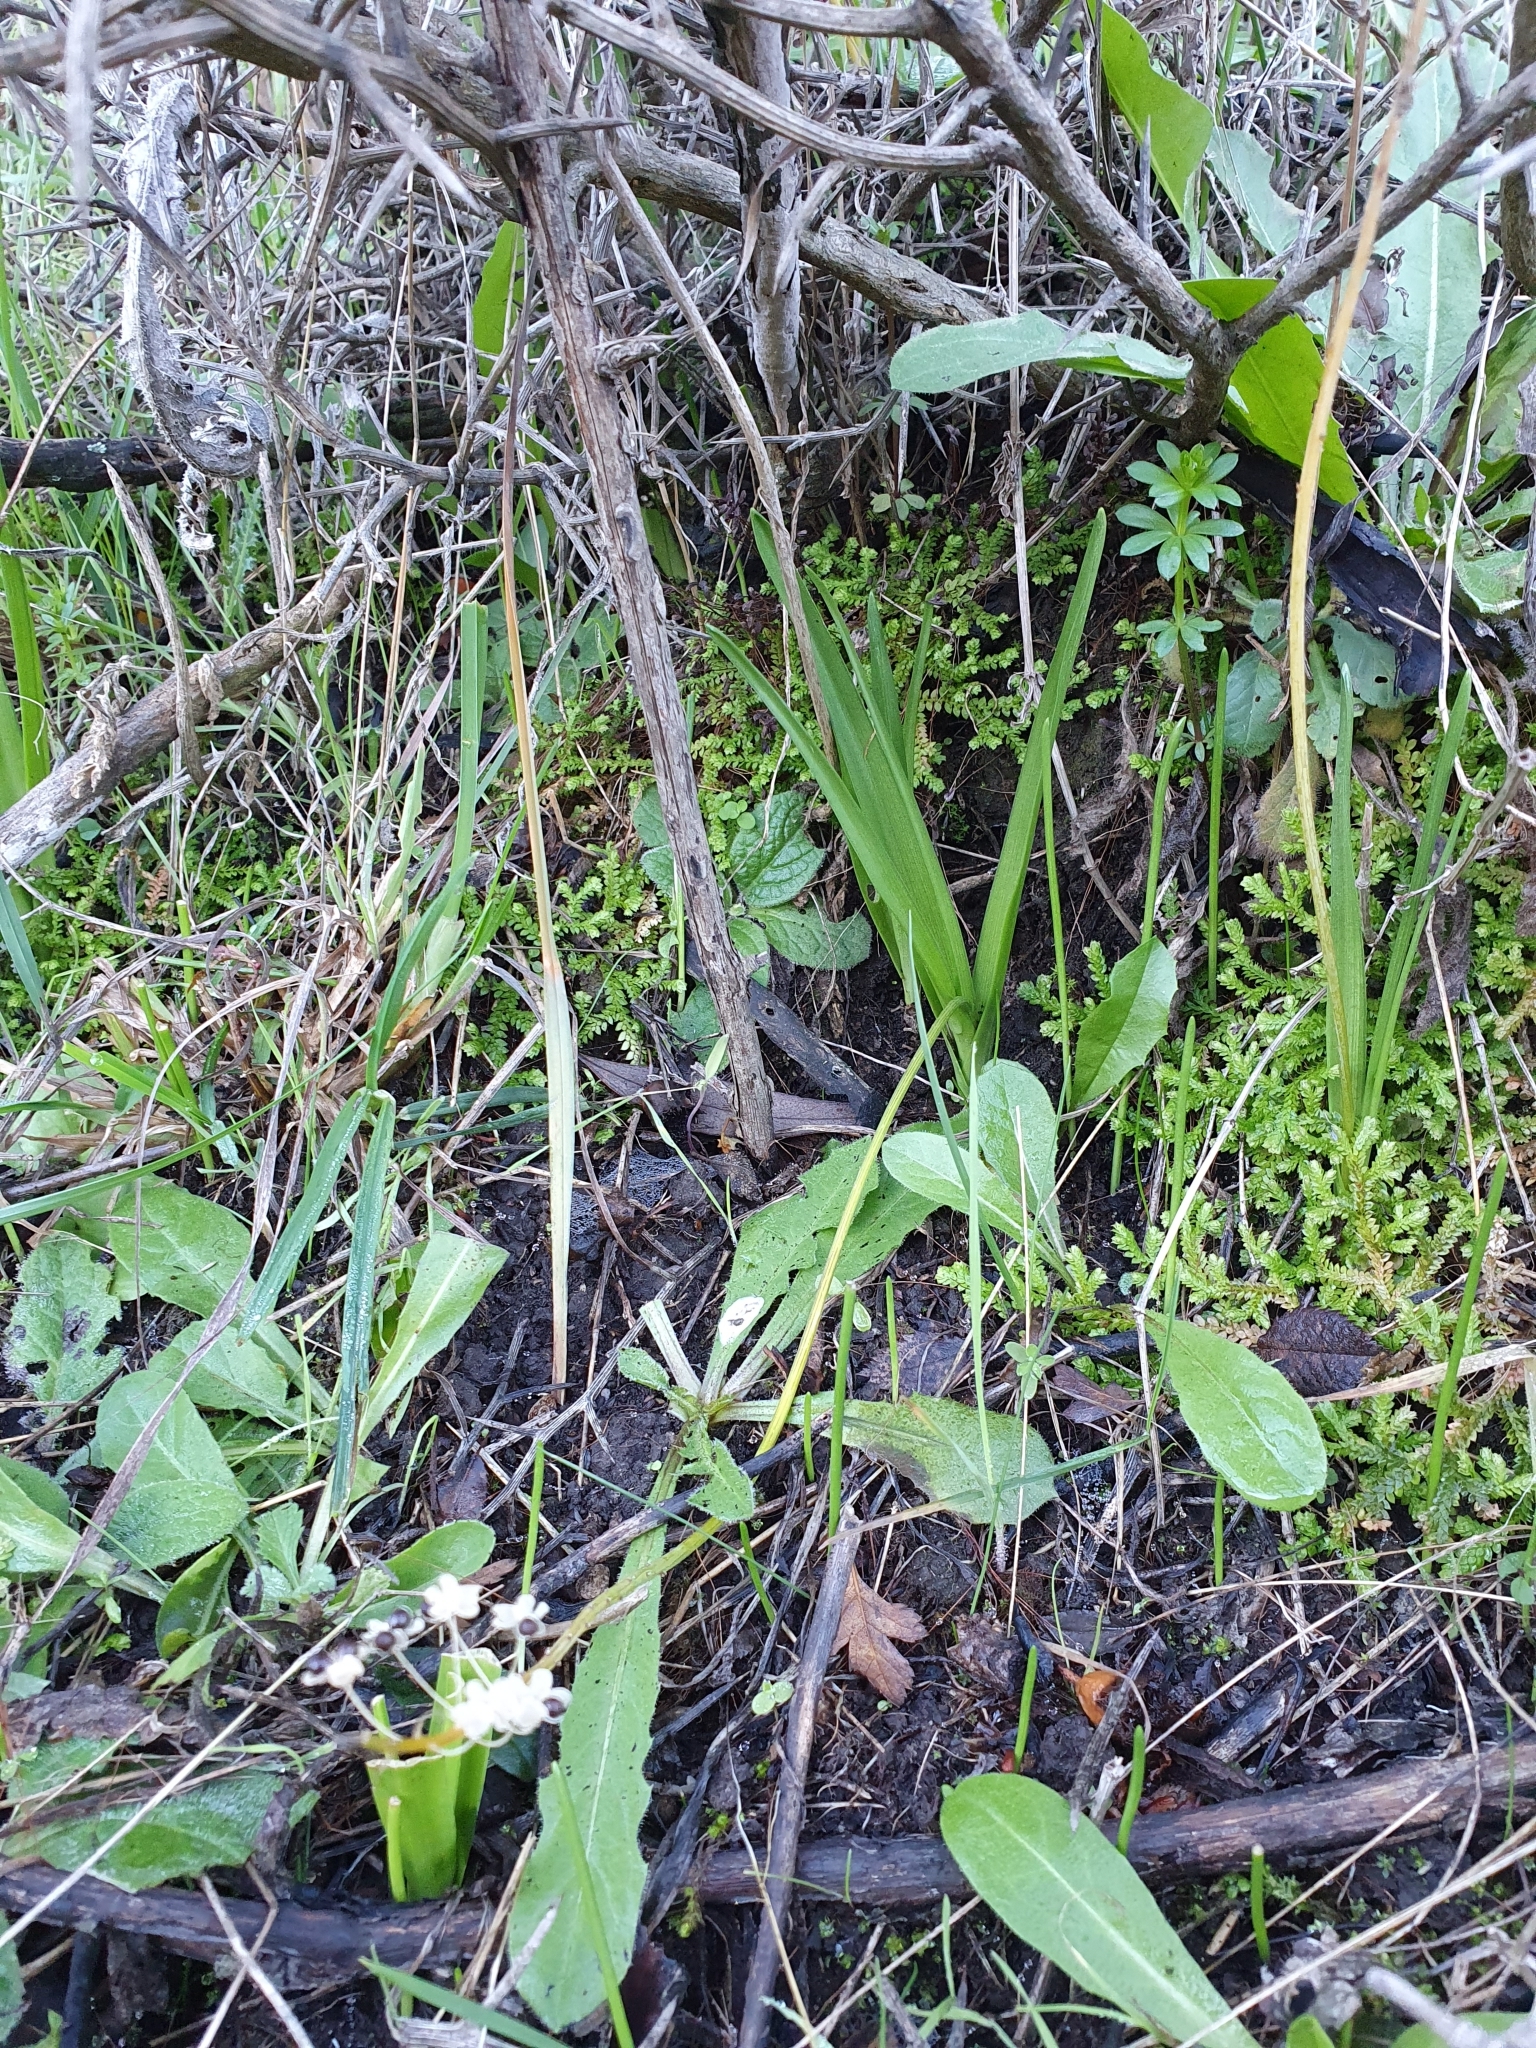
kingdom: Plantae
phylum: Tracheophyta
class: Liliopsida
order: Asparagales
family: Asparagaceae
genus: Barnardia
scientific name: Barnardia numidica
